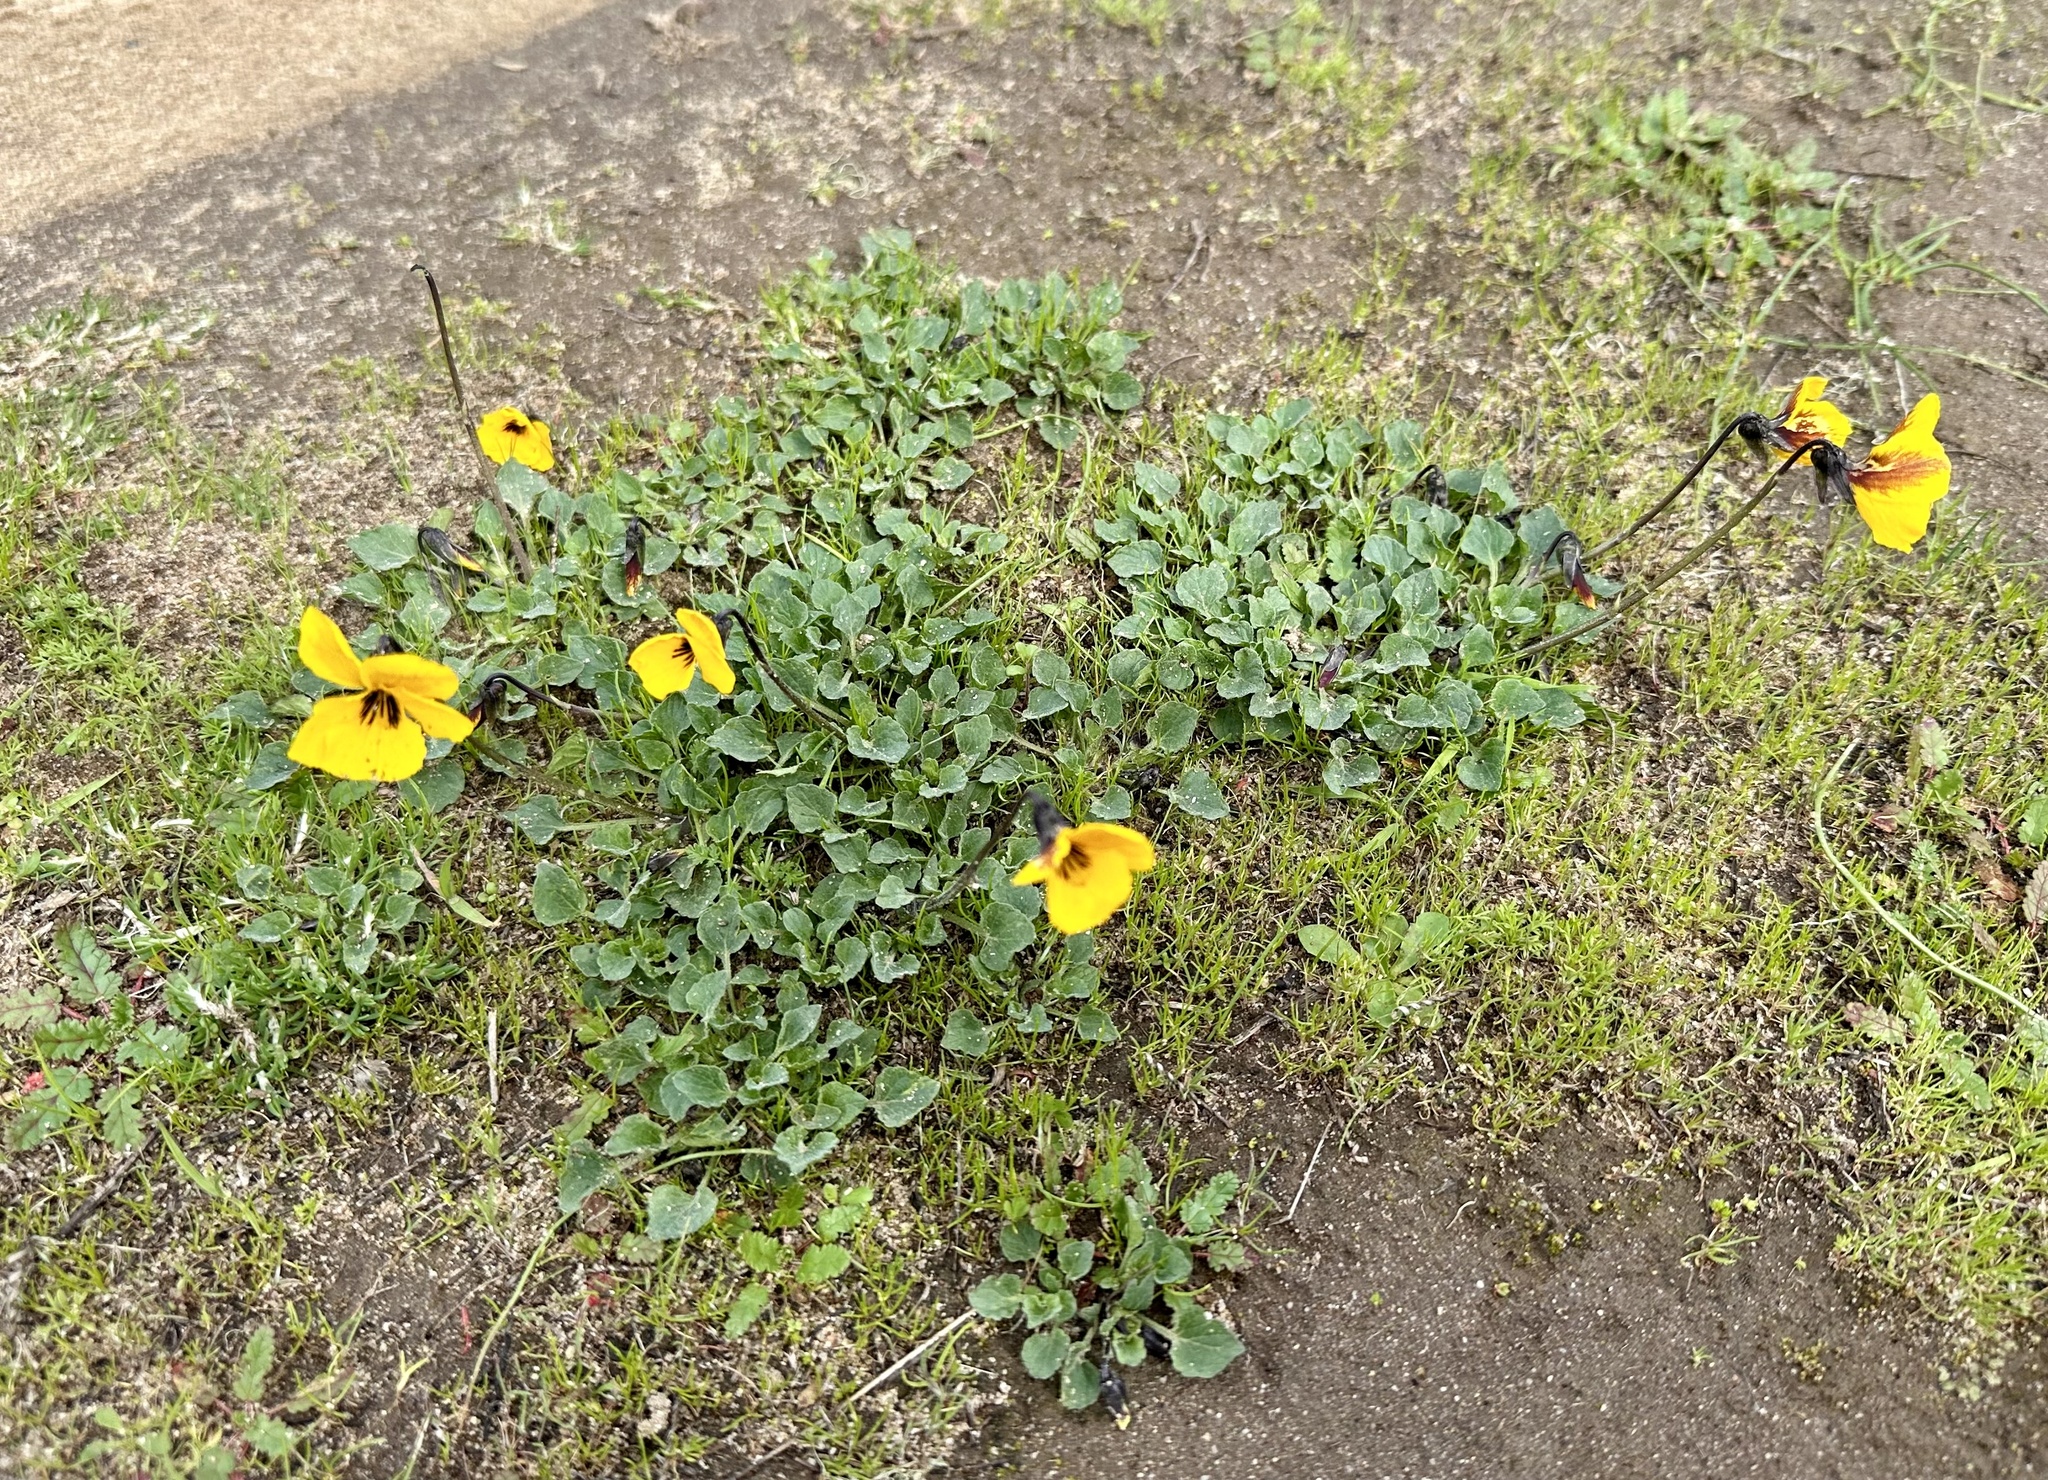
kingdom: Plantae
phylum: Tracheophyta
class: Magnoliopsida
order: Malpighiales
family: Violaceae
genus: Viola
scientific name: Viola pedunculata
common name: California golden violet
